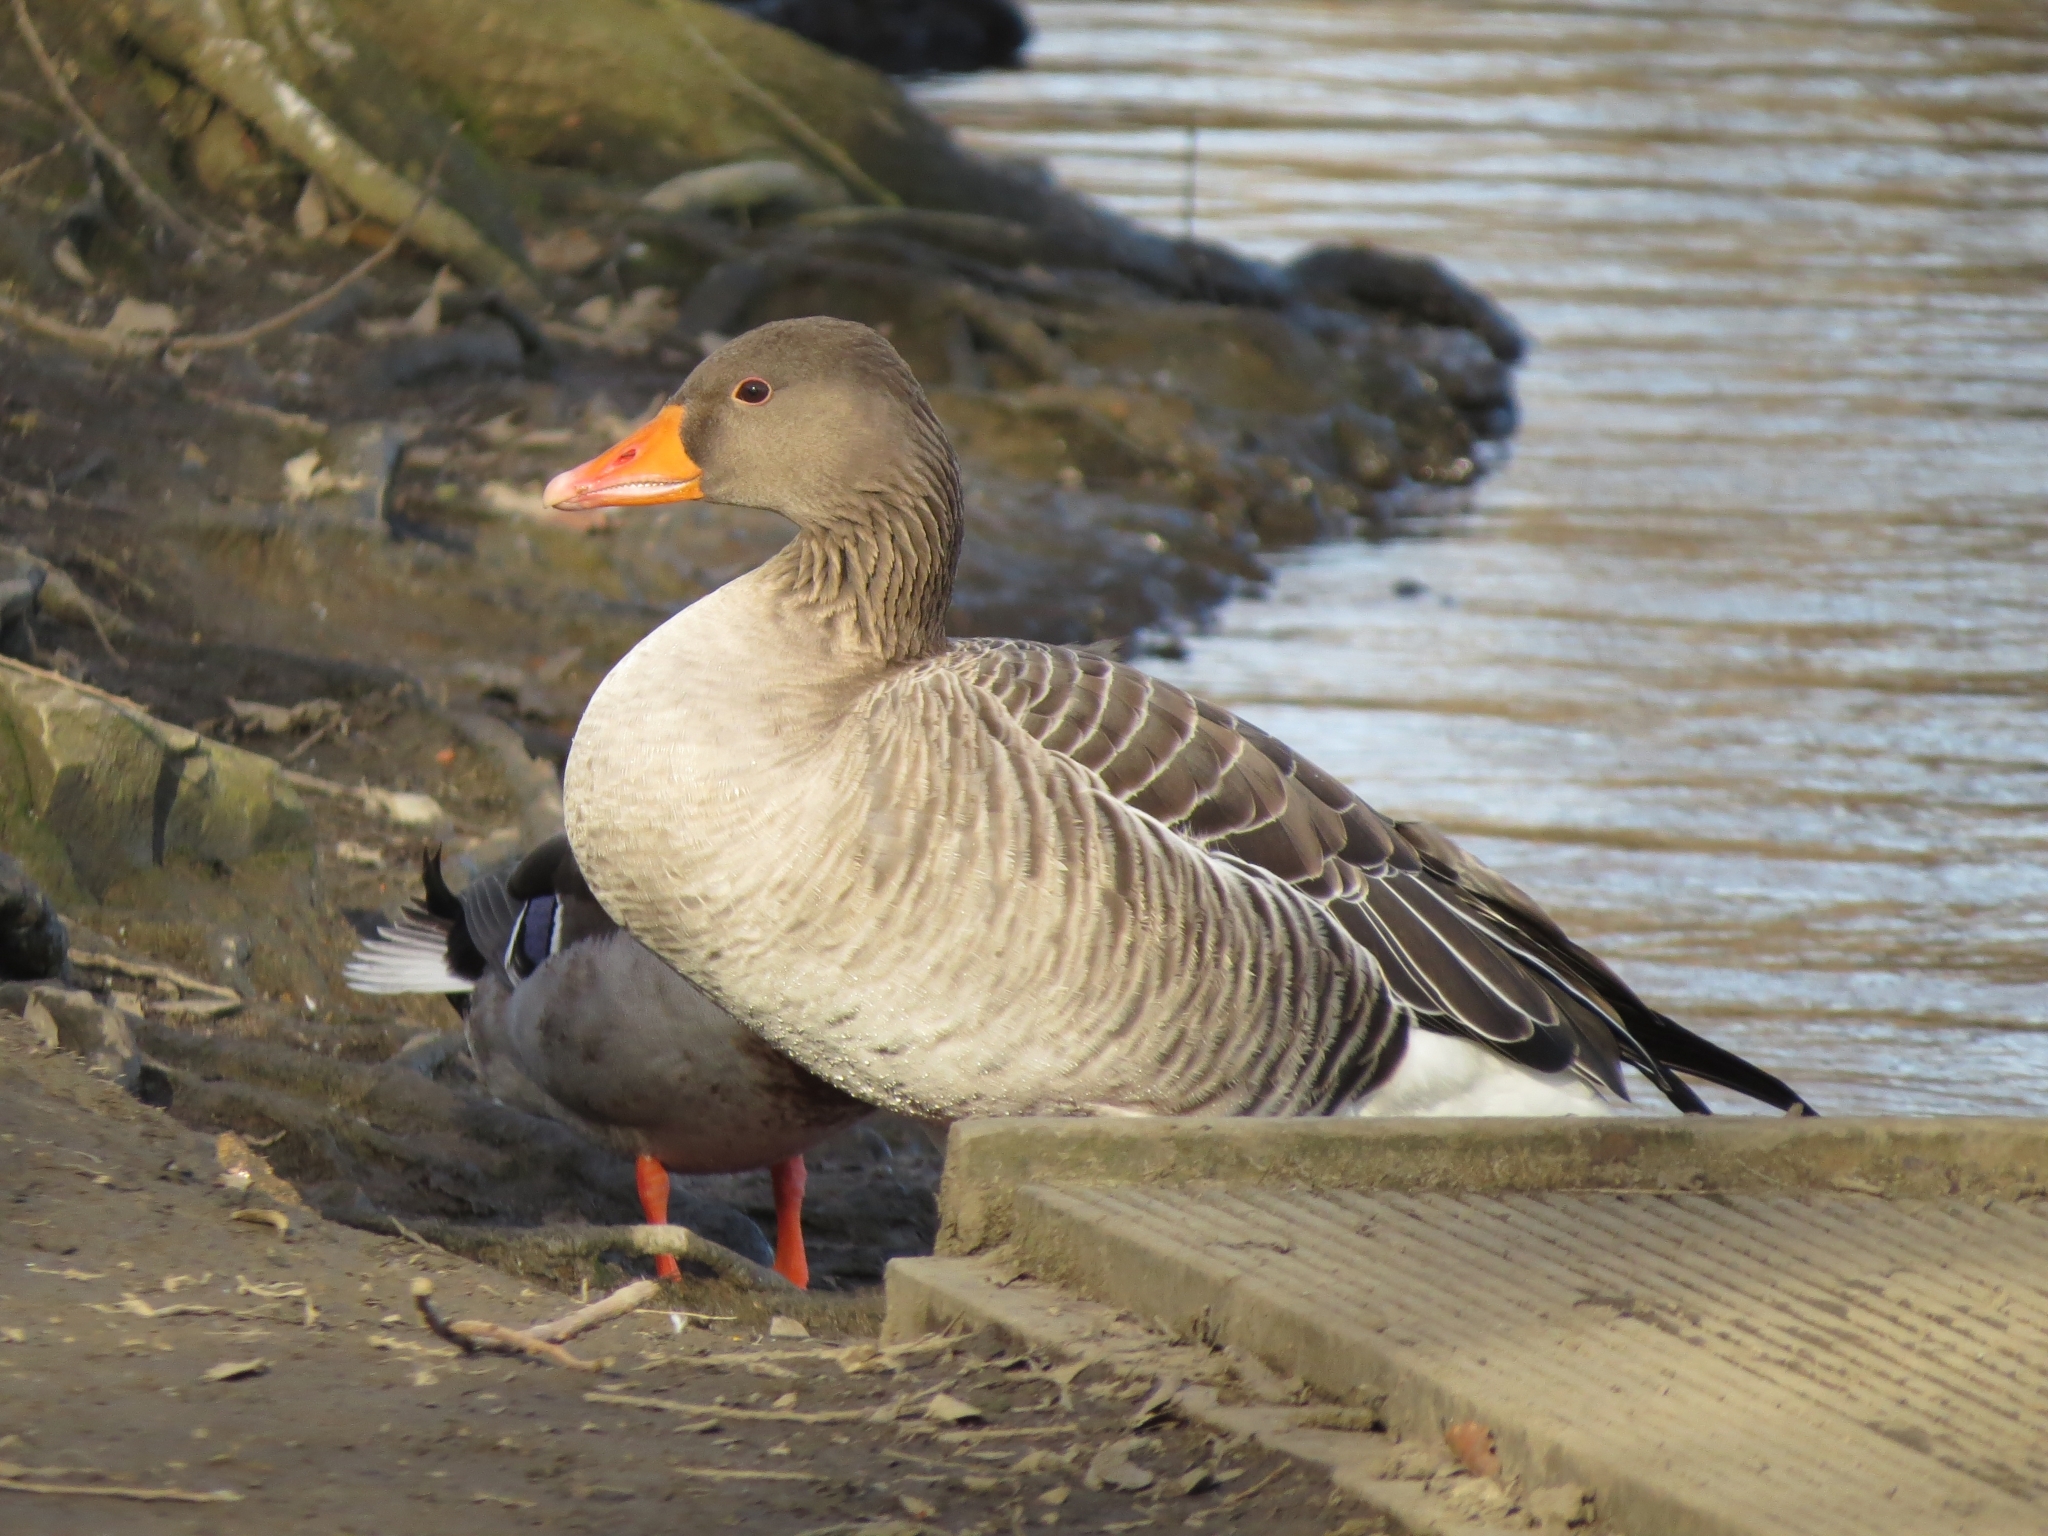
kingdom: Animalia
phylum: Chordata
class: Aves
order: Anseriformes
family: Anatidae
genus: Anser
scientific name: Anser anser
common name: Greylag goose
